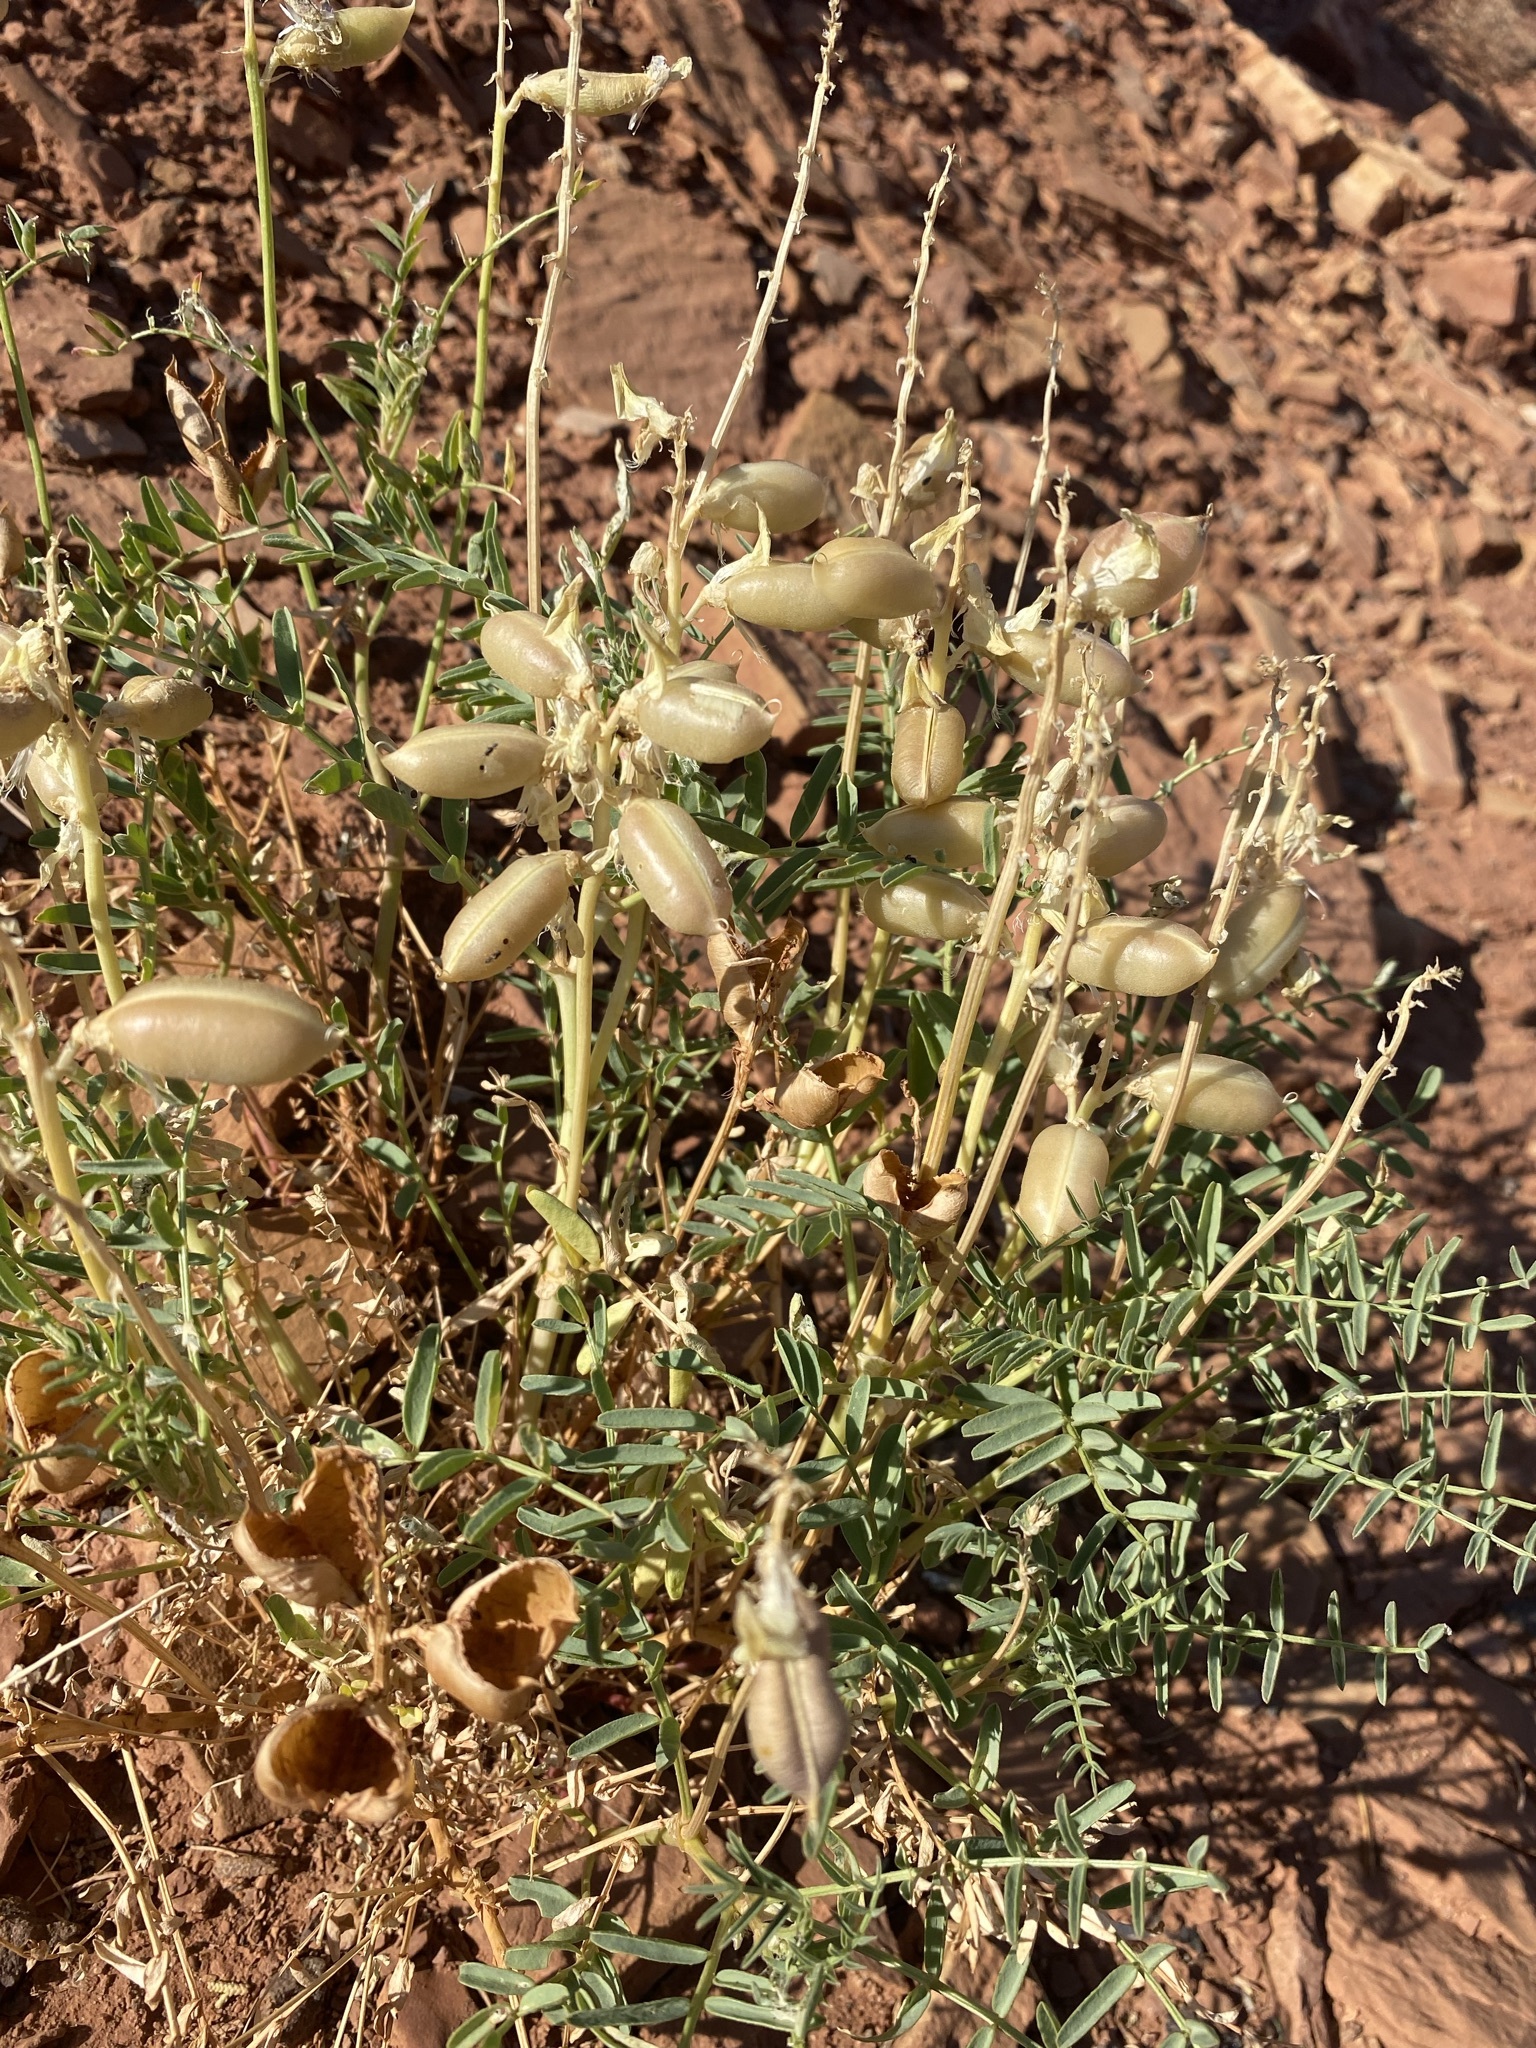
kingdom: Plantae
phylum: Tracheophyta
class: Magnoliopsida
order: Fabales
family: Fabaceae
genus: Astragalus
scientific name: Astragalus praelongus
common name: Stinking milk-vetch
